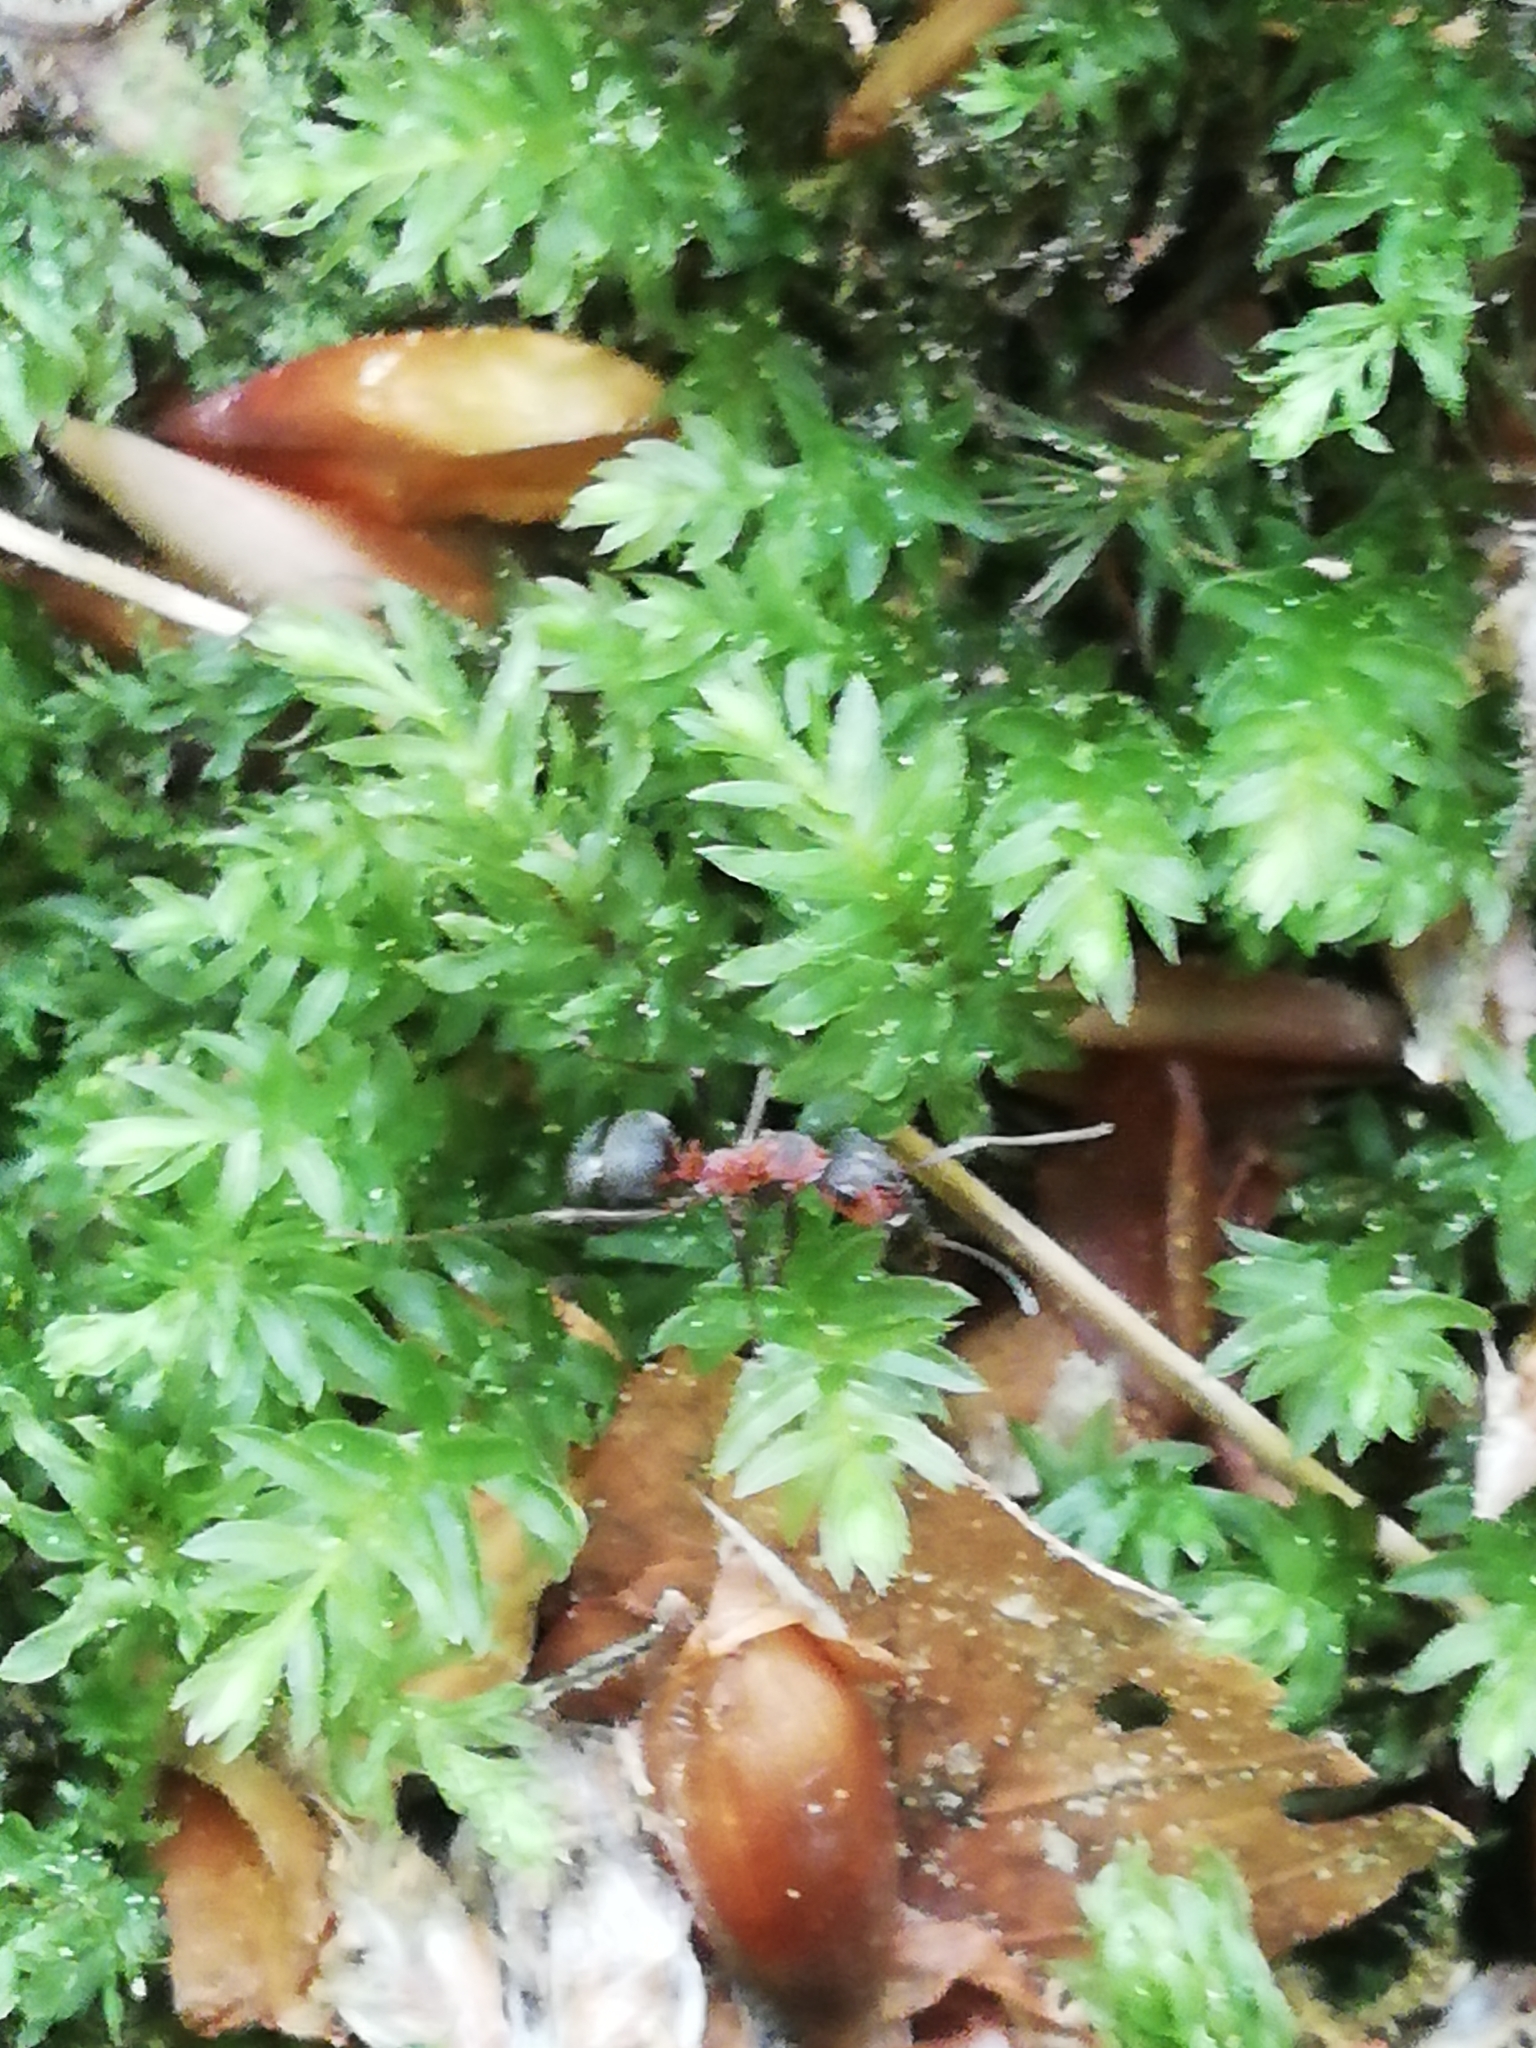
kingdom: Animalia
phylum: Arthropoda
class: Insecta
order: Hymenoptera
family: Formicidae
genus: Formica
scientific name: Formica rufa
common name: Red wood ant
